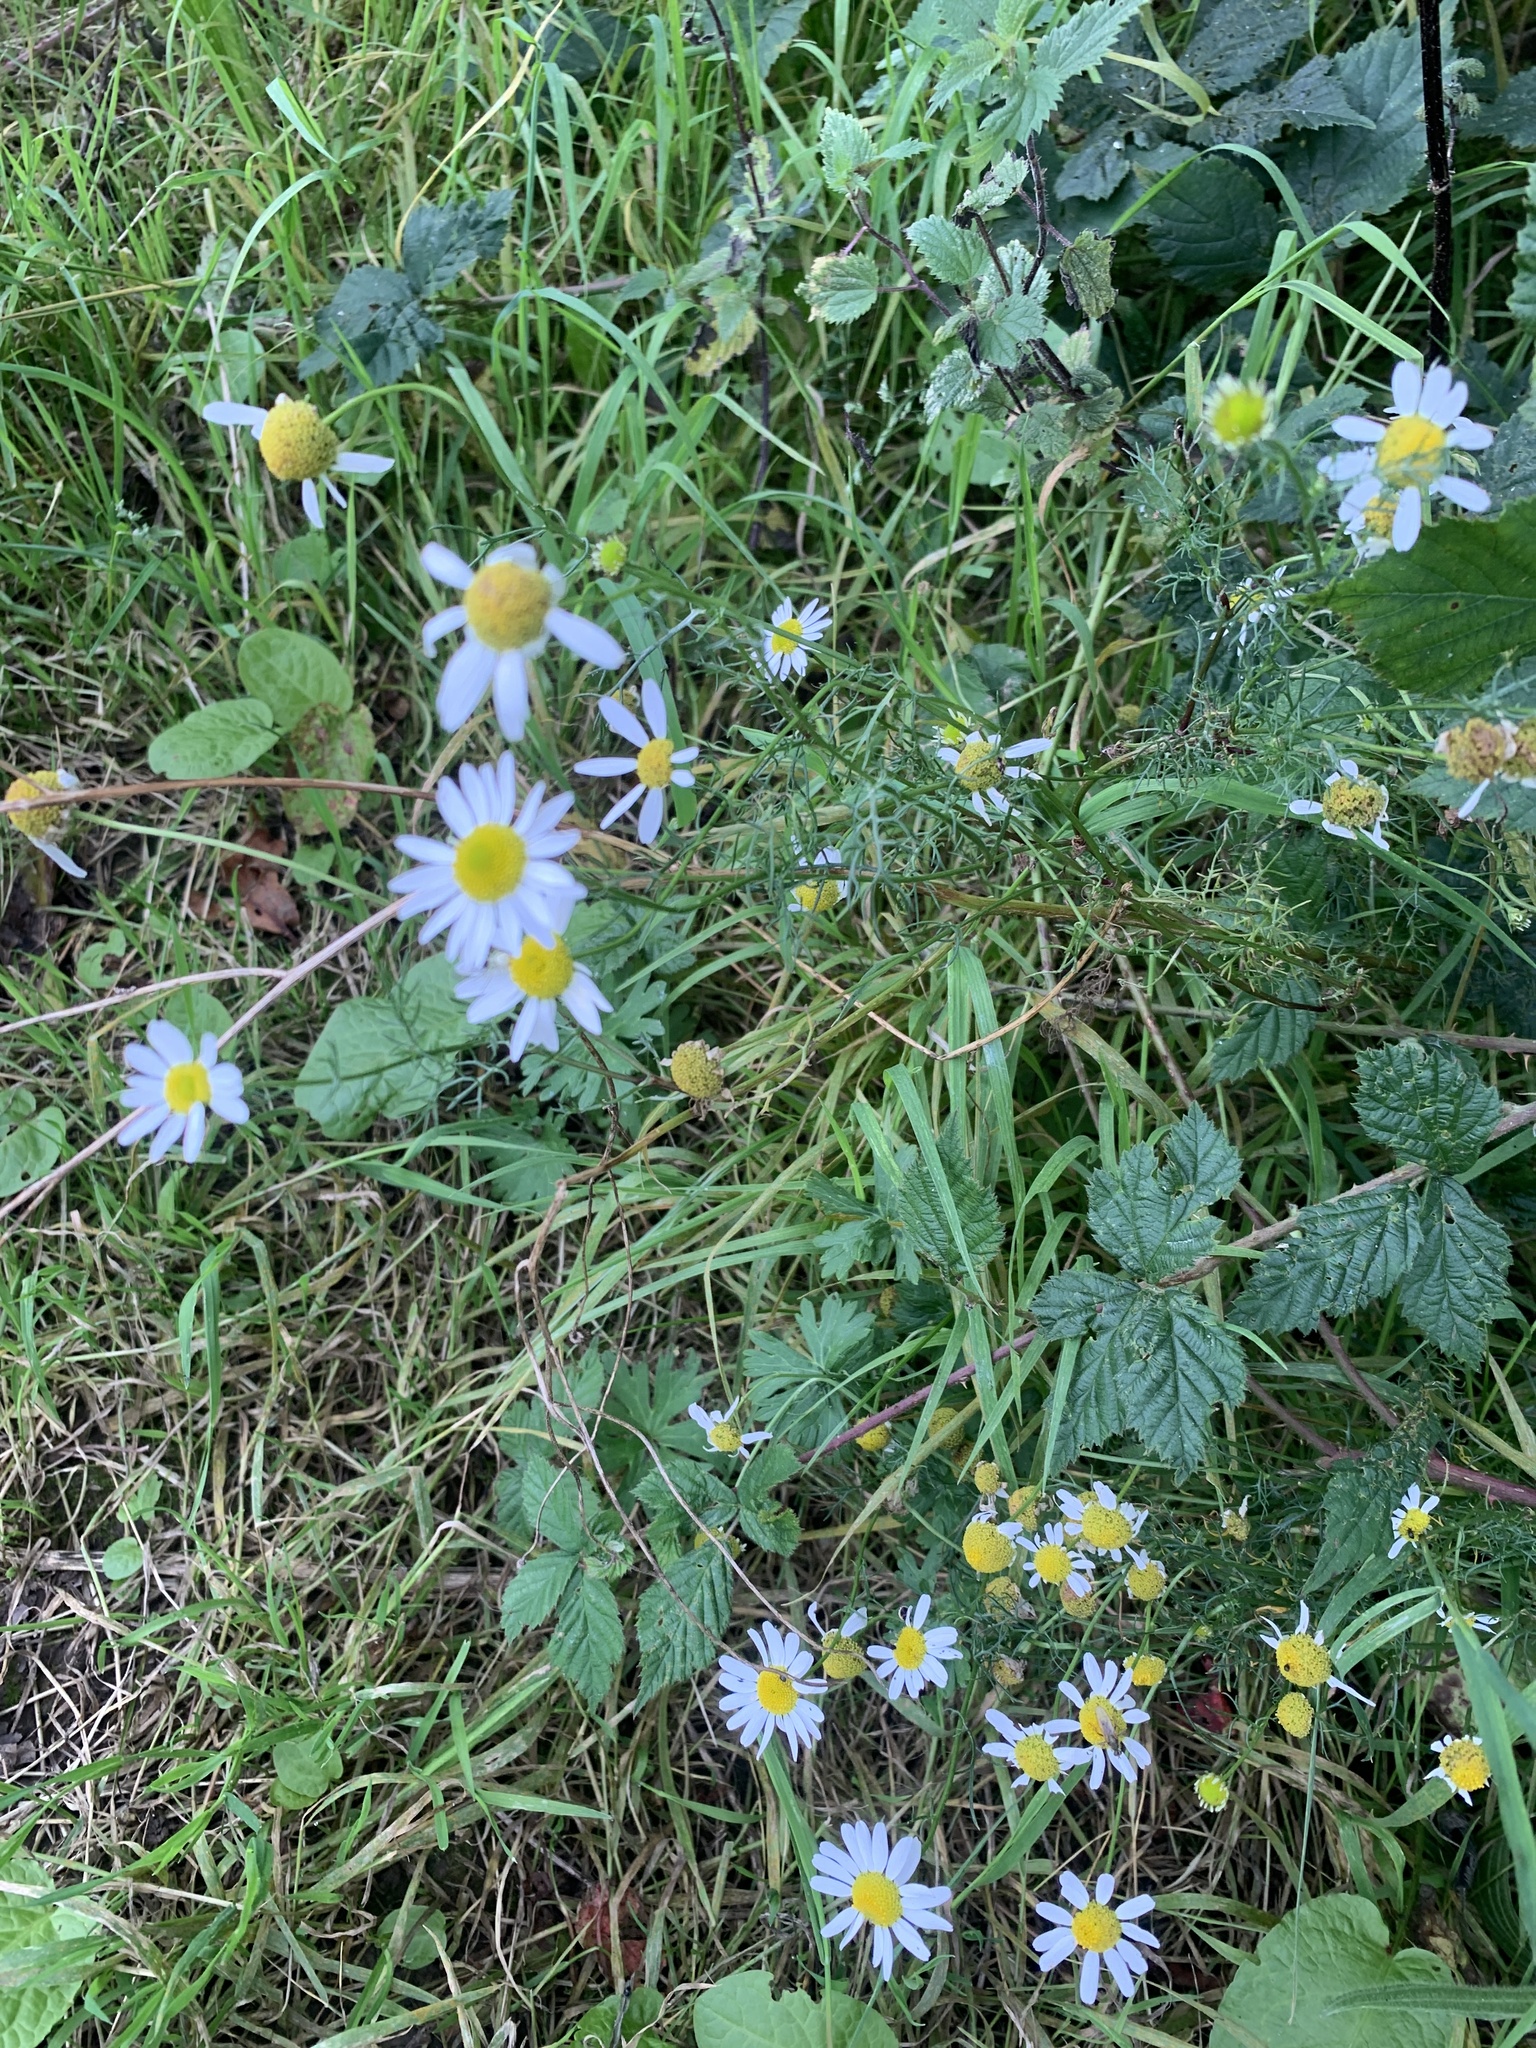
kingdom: Plantae
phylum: Tracheophyta
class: Magnoliopsida
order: Asterales
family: Asteraceae
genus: Tripleurospermum
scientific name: Tripleurospermum inodorum
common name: Scentless mayweed
